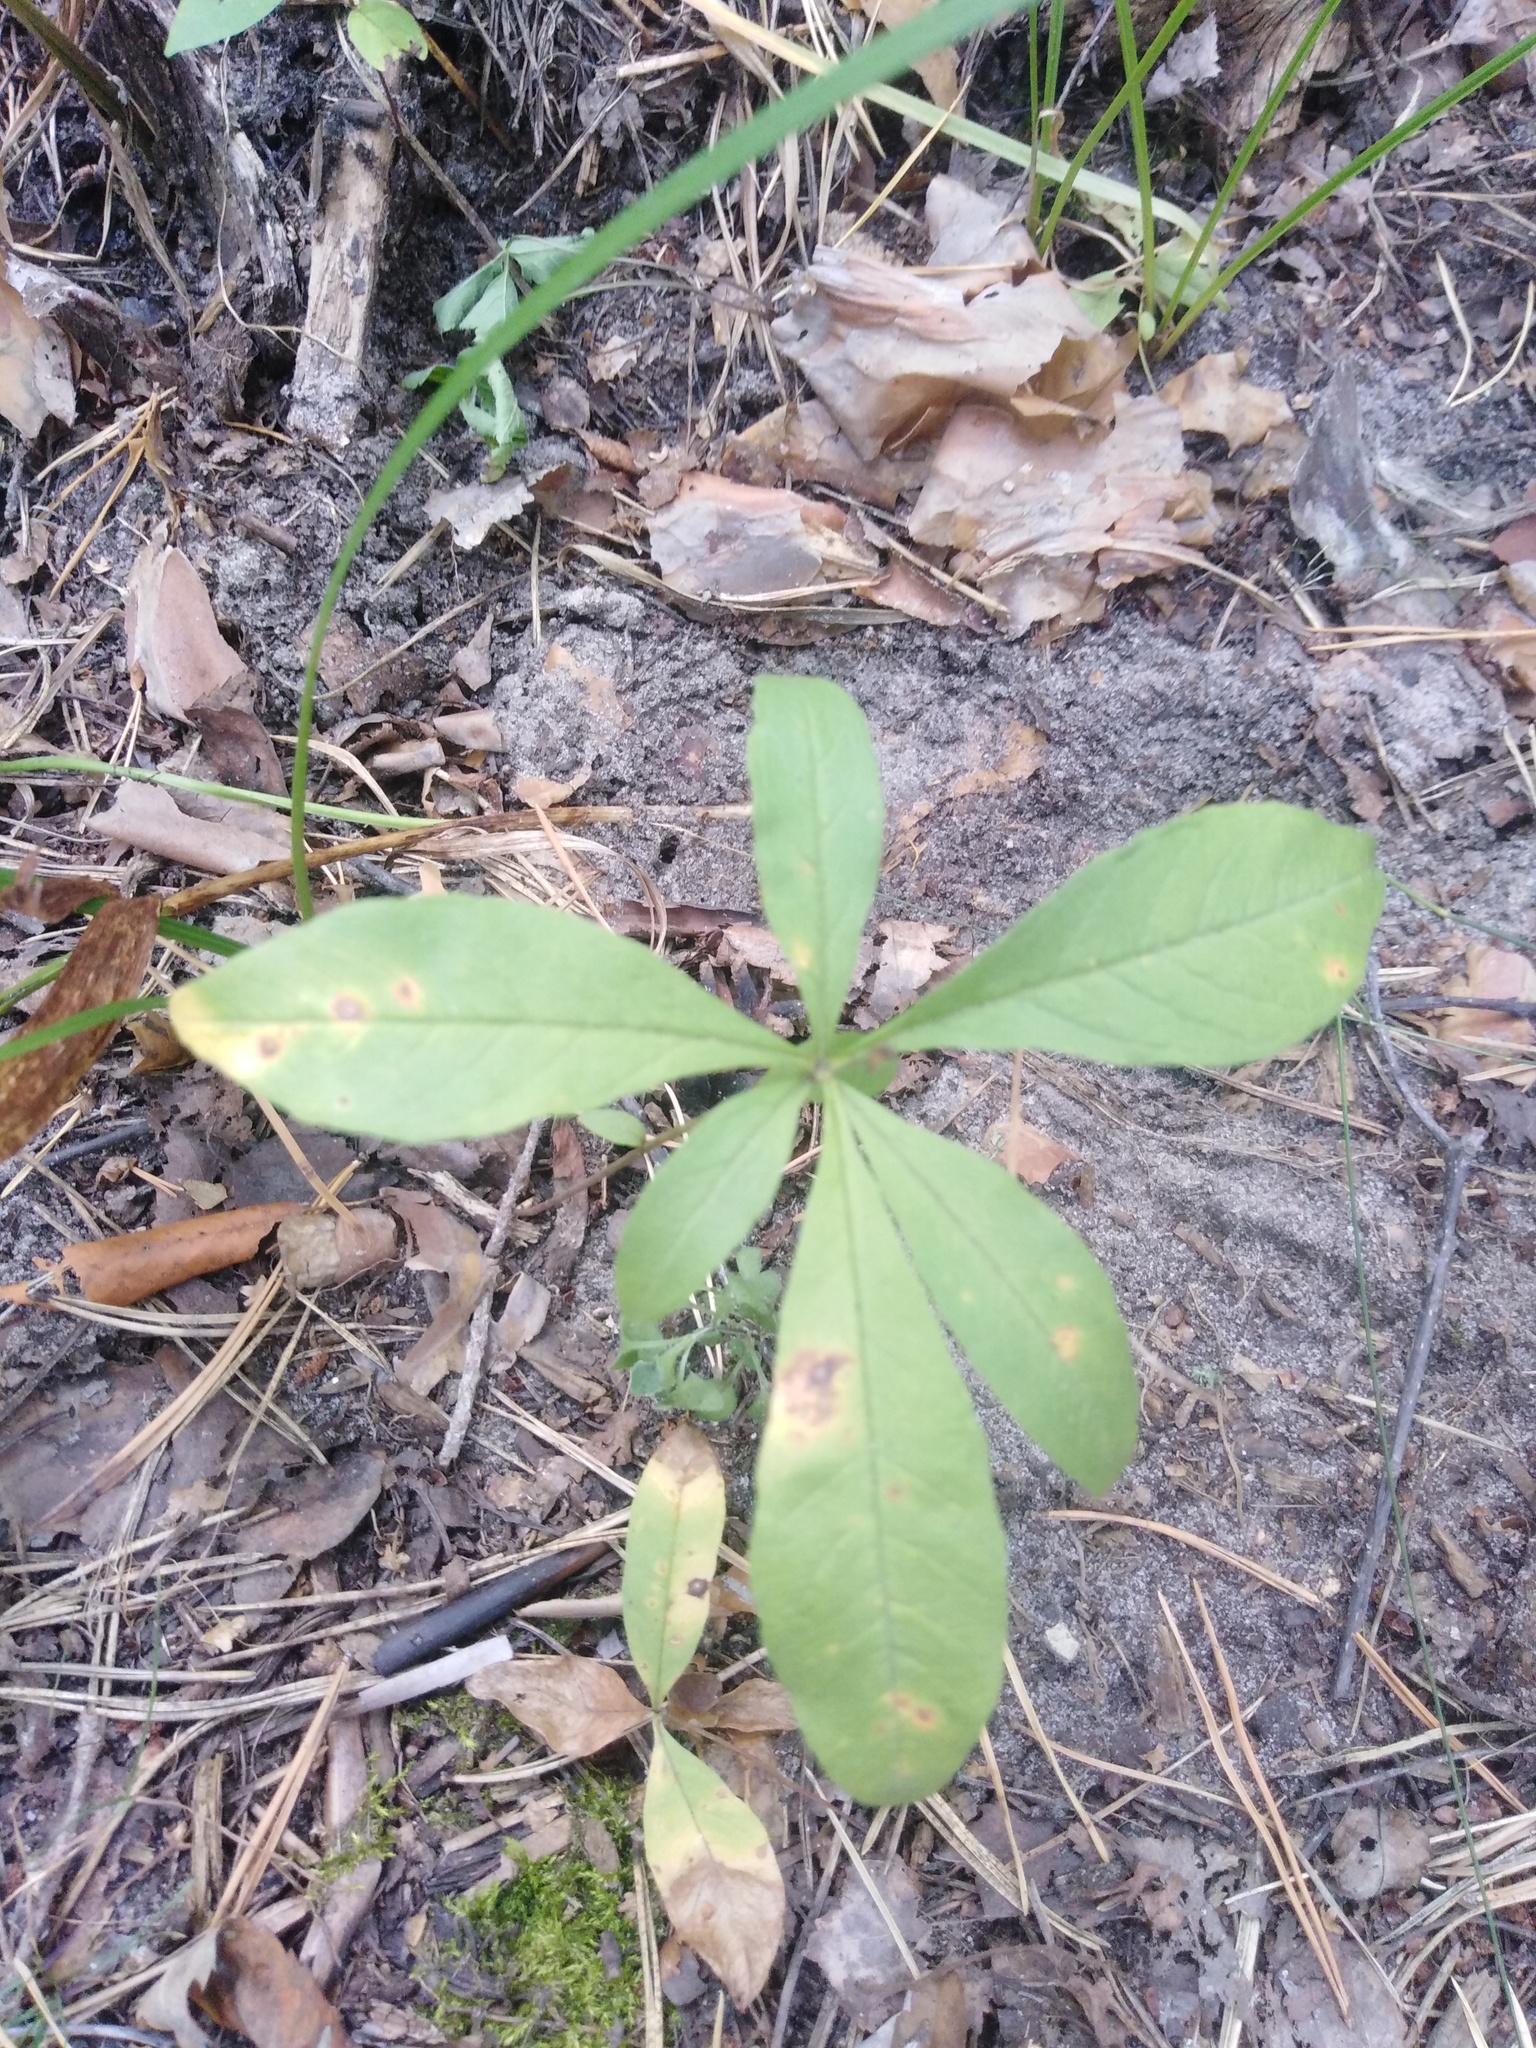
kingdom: Plantae
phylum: Tracheophyta
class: Magnoliopsida
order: Ericales
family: Primulaceae
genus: Lysimachia
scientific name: Lysimachia europaea
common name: Arctic starflower
